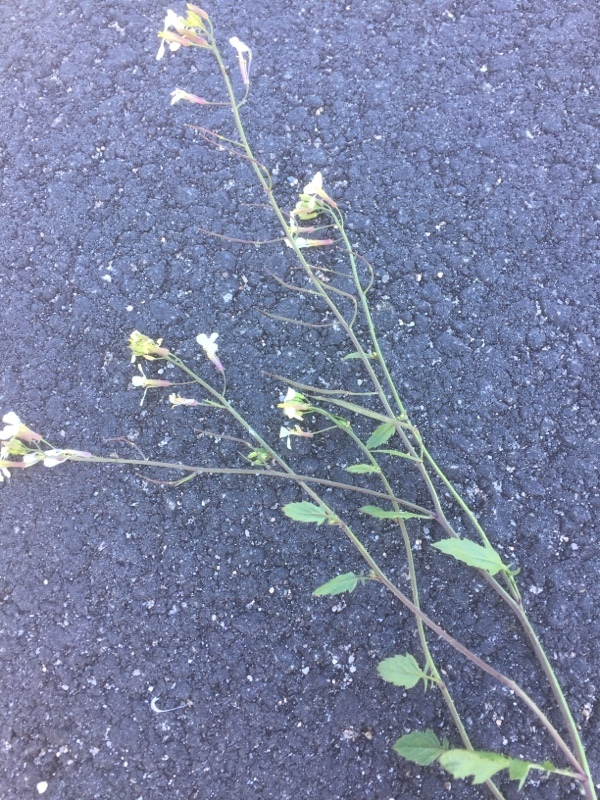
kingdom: Plantae
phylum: Tracheophyta
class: Magnoliopsida
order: Brassicales
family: Brassicaceae
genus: Raphanus
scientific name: Raphanus raphanistrum
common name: Wild radish
